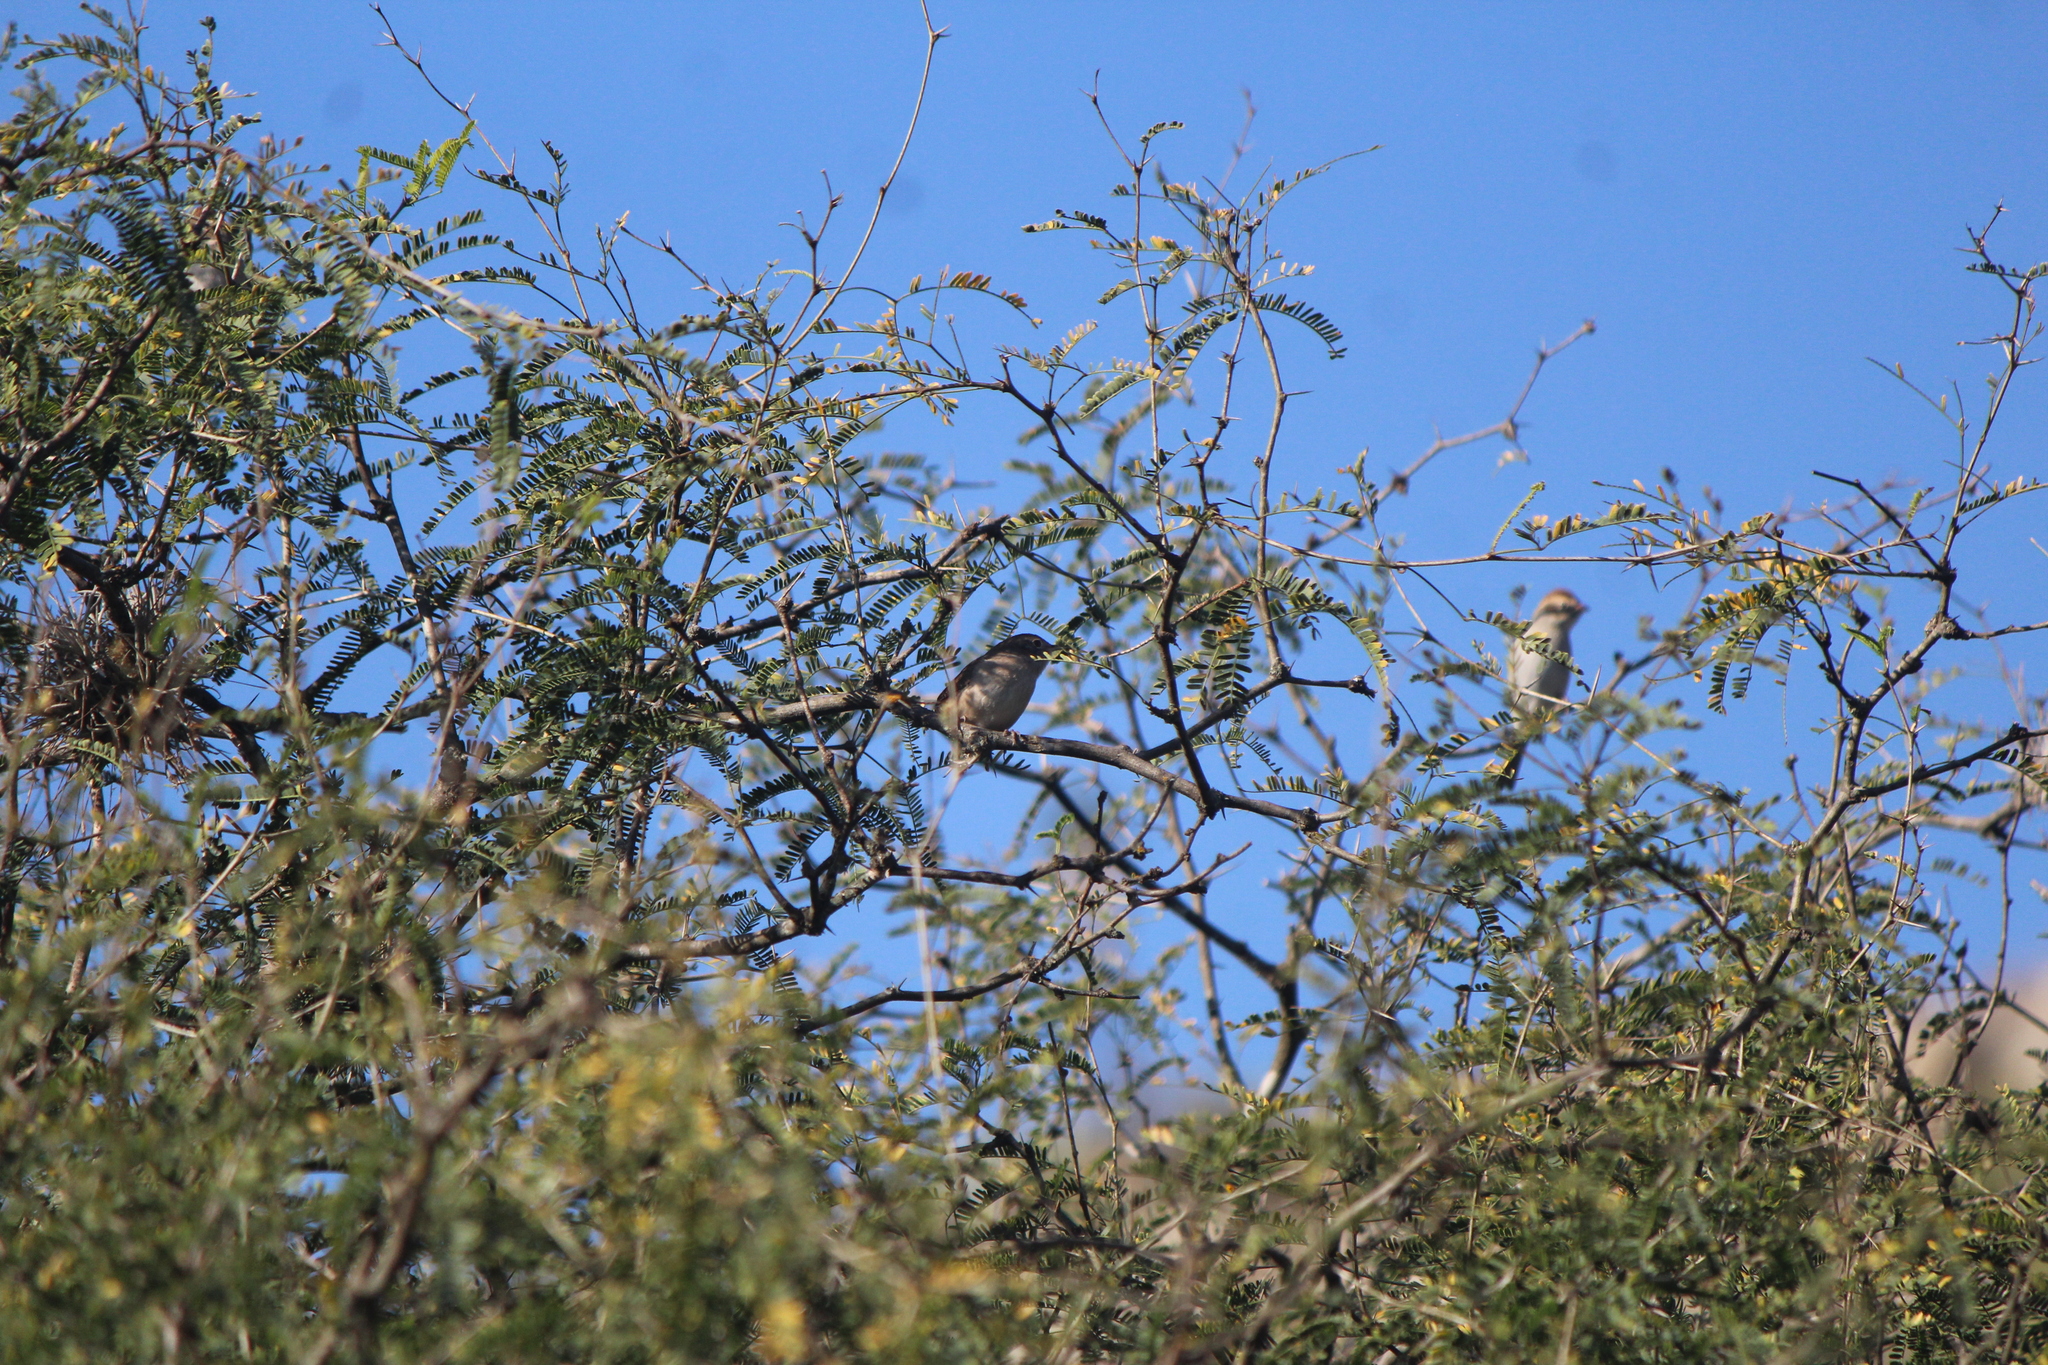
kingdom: Animalia
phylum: Chordata
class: Aves
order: Passeriformes
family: Polioptilidae
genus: Polioptila
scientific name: Polioptila caerulea
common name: Blue-gray gnatcatcher
